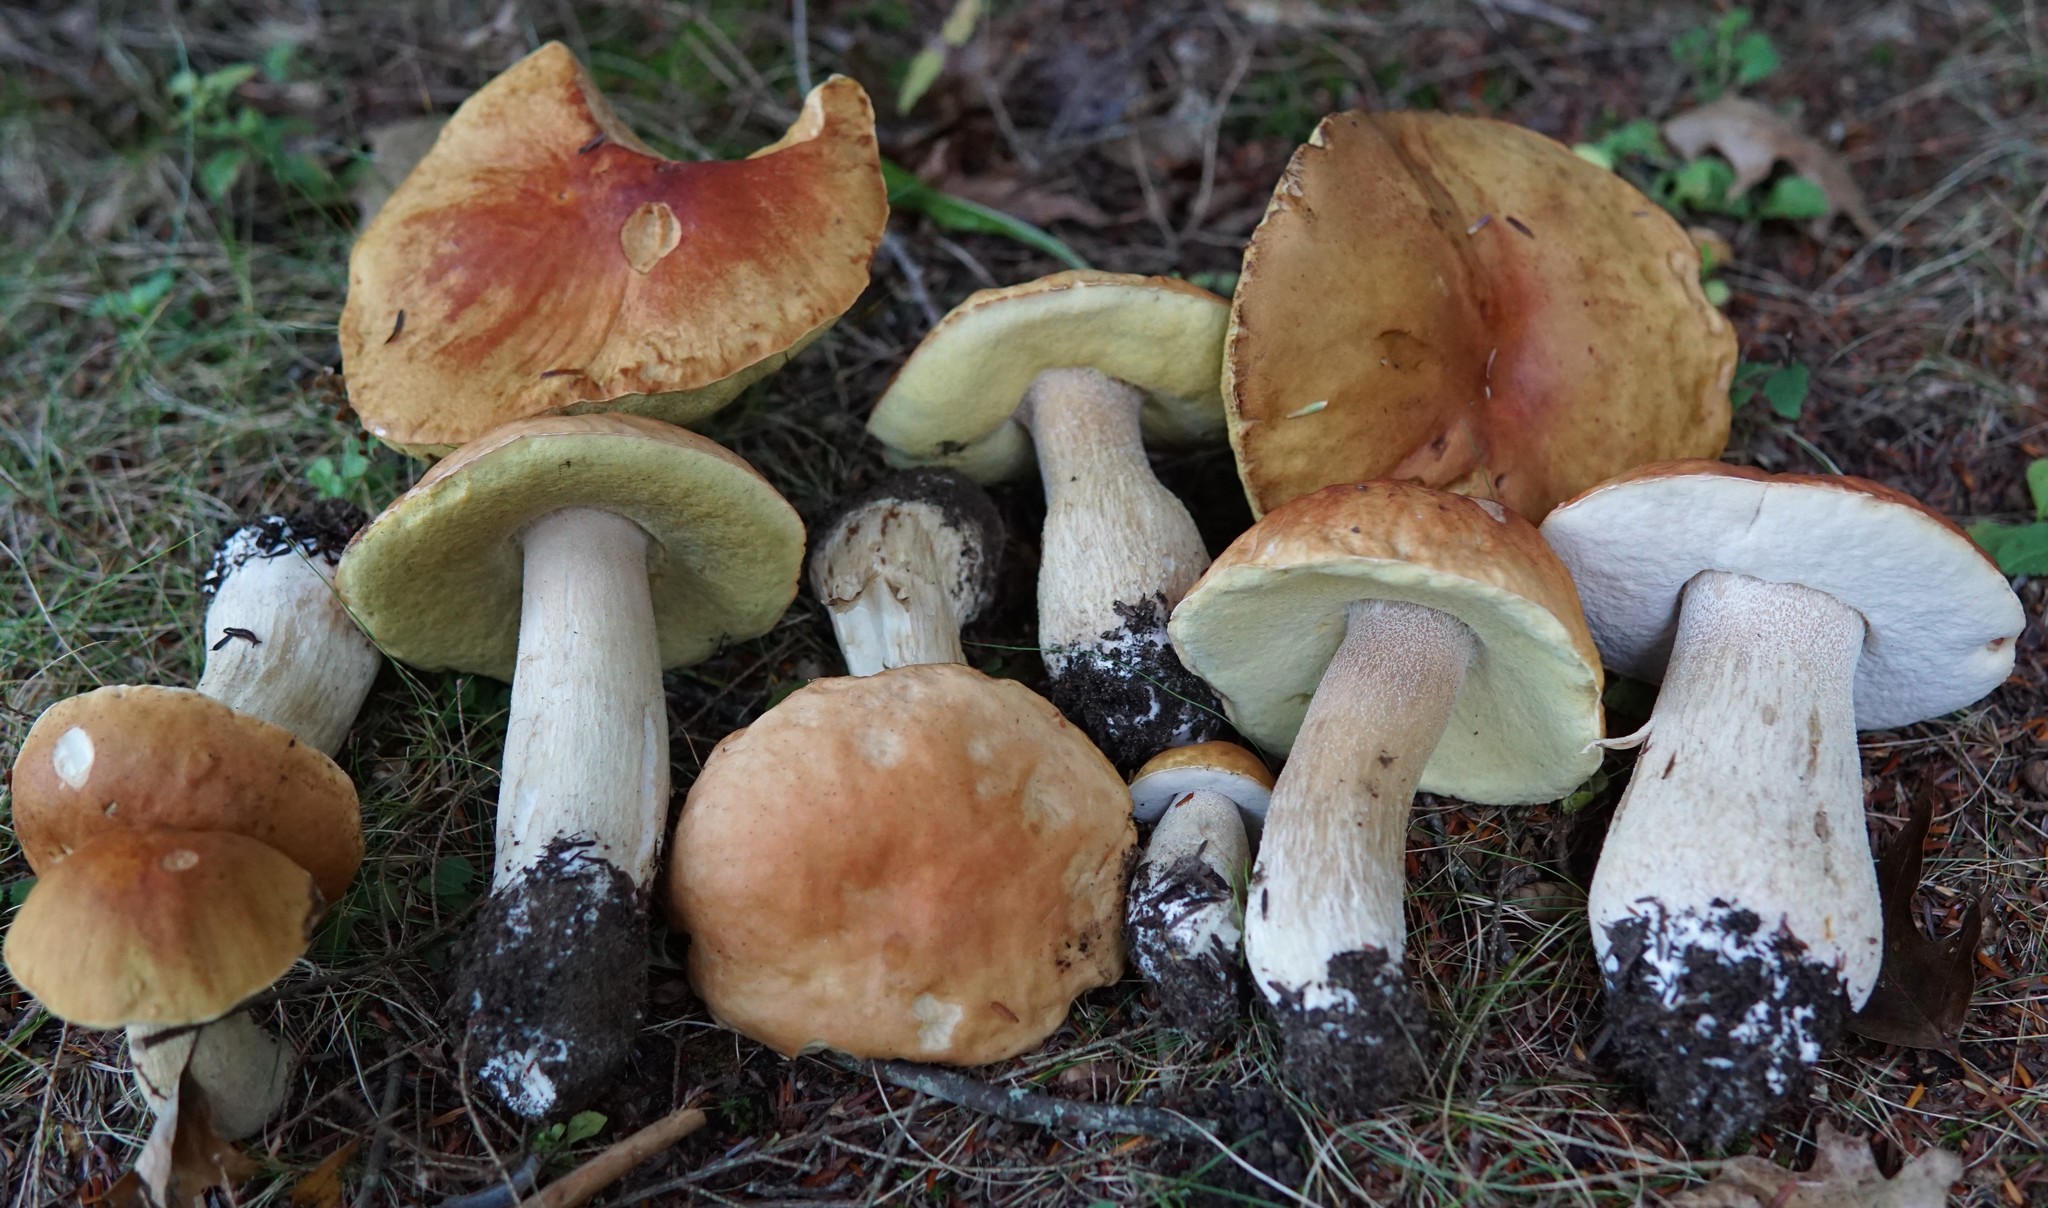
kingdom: Fungi
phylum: Basidiomycota
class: Agaricomycetes
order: Boletales
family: Boletaceae
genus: Boletus
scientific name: Boletus chippewaensis
